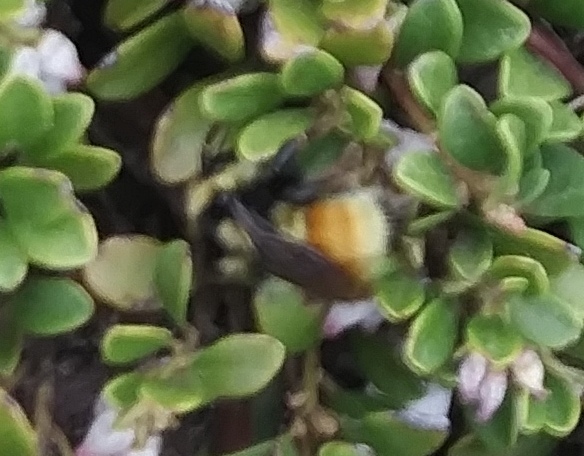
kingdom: Animalia
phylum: Arthropoda
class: Insecta
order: Hymenoptera
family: Apidae
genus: Bombus
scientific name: Bombus bifarius
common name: Two form bumble bee
